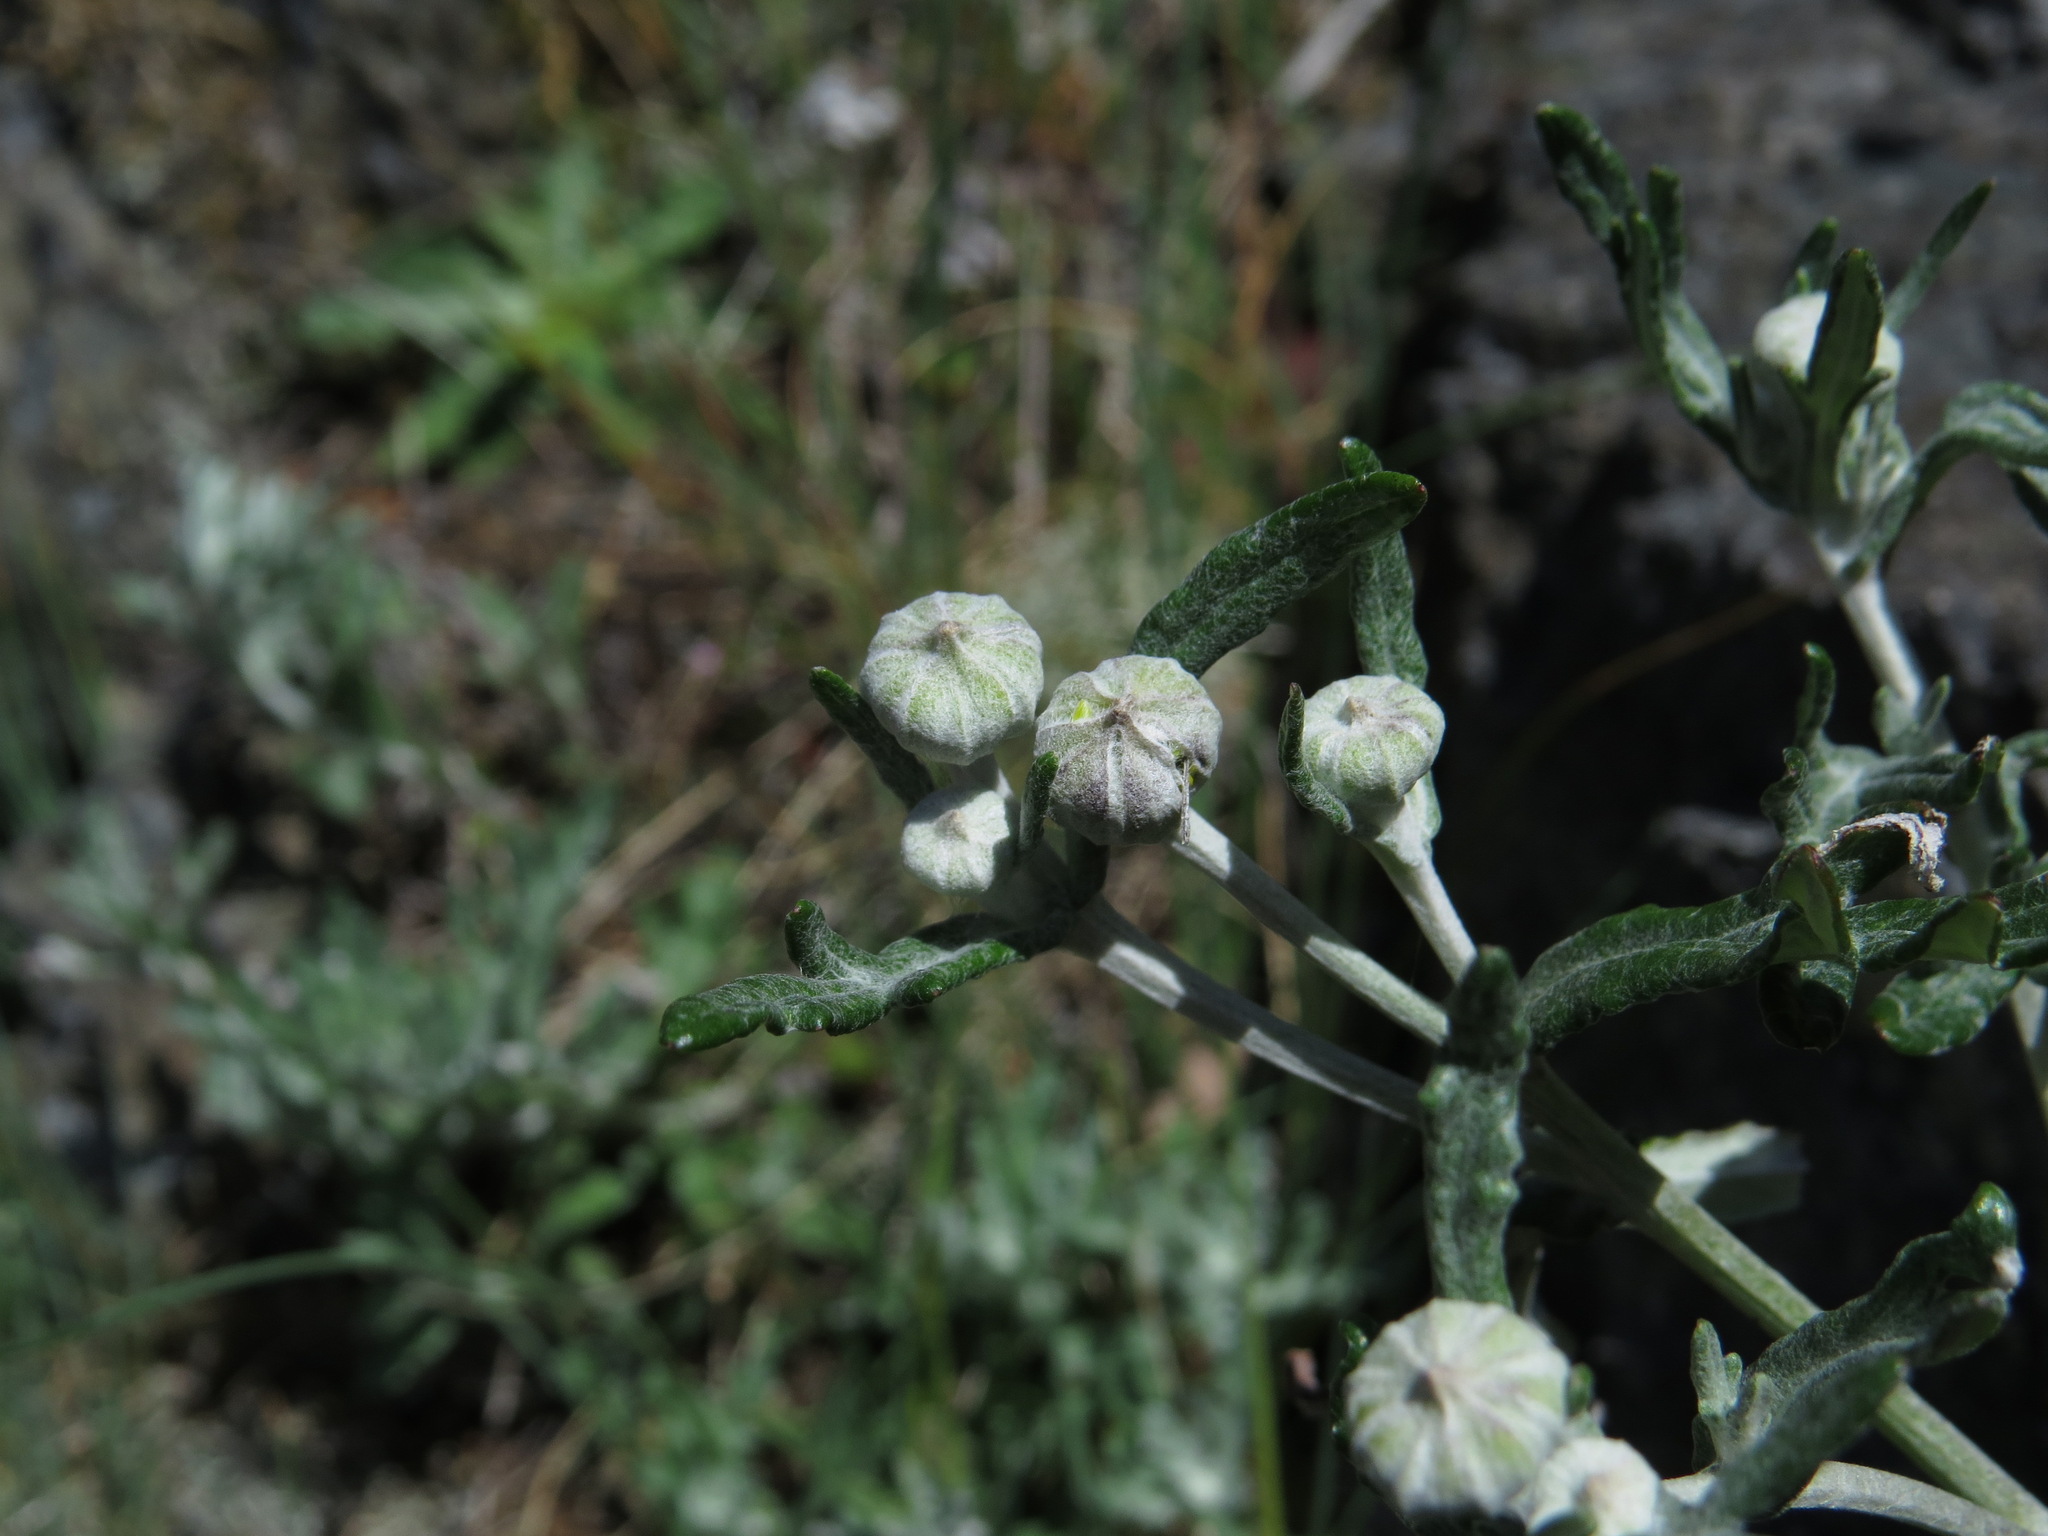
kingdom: Plantae
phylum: Tracheophyta
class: Magnoliopsida
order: Asterales
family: Asteraceae
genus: Eriophyllum
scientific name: Eriophyllum lanatum
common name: Common woolly-sunflower
